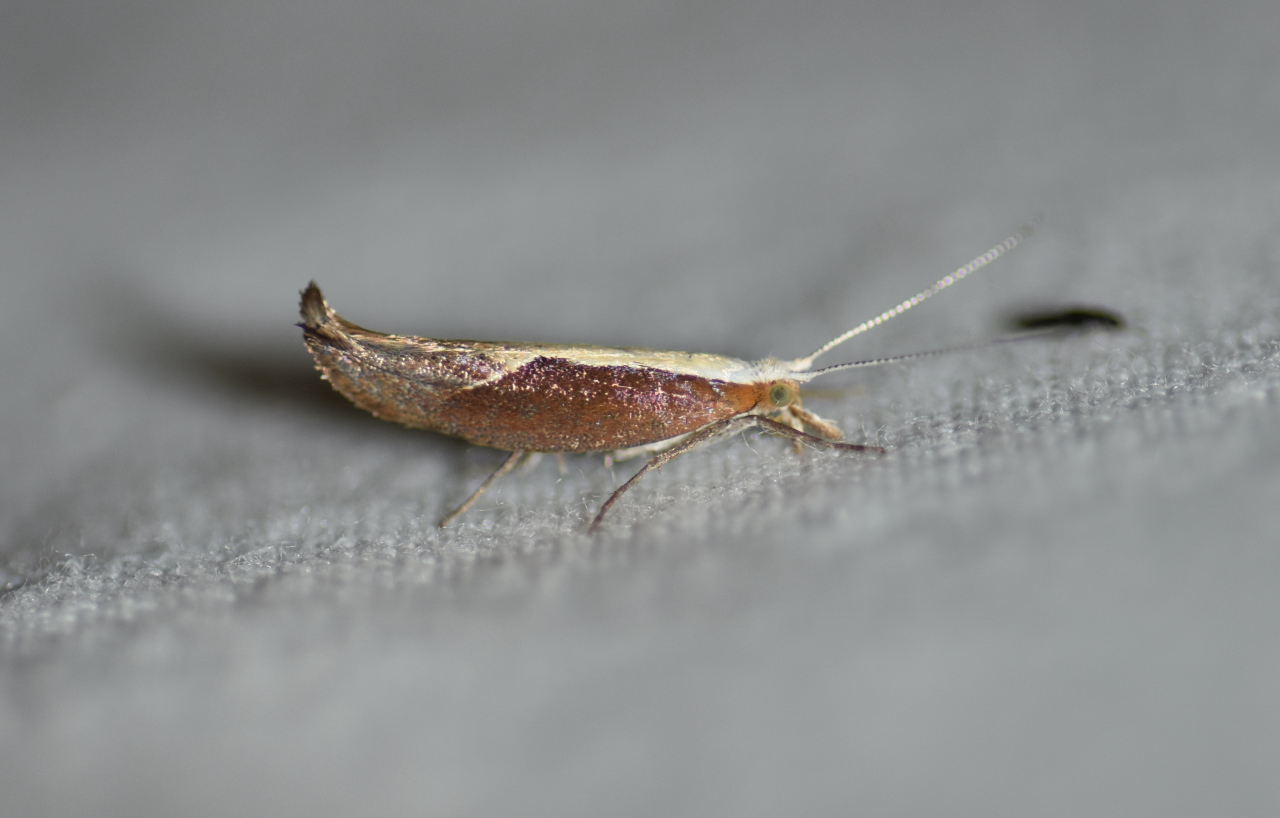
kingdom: Animalia
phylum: Arthropoda
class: Insecta
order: Lepidoptera
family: Ypsolophidae
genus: Ypsolopha
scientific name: Ypsolopha dentella
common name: Honeysuckle moth
